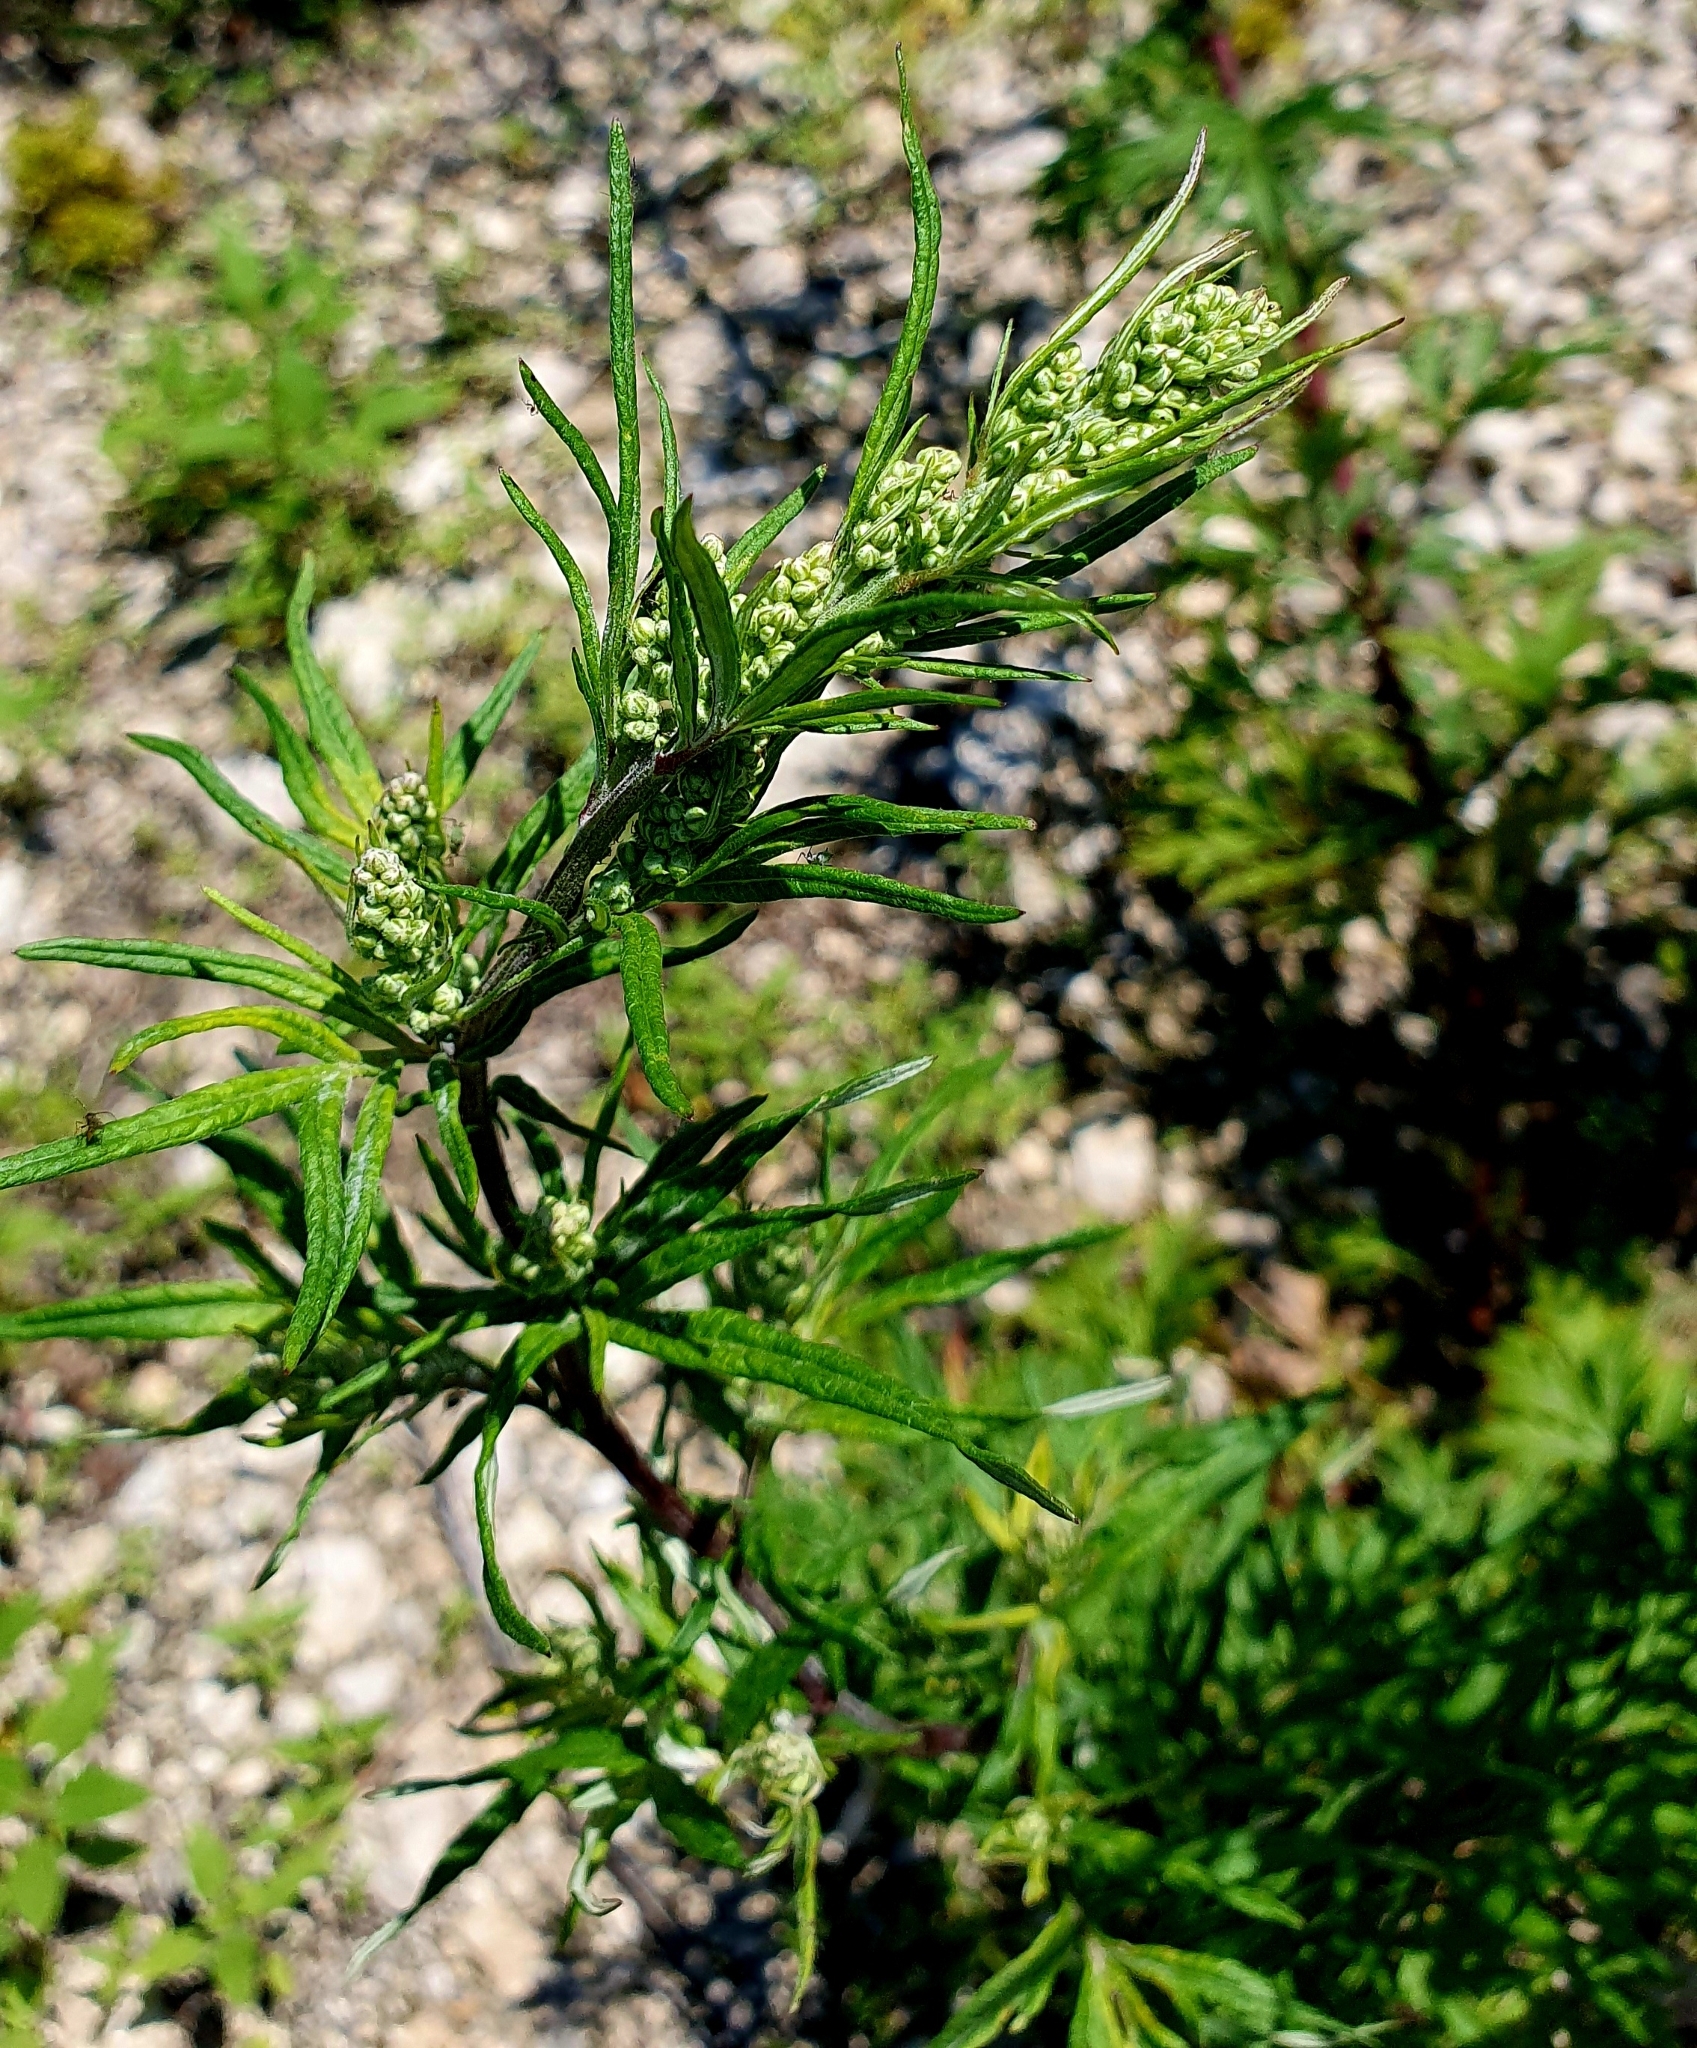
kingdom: Plantae
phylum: Tracheophyta
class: Magnoliopsida
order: Asterales
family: Asteraceae
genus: Artemisia
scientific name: Artemisia vulgaris
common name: Mugwort
